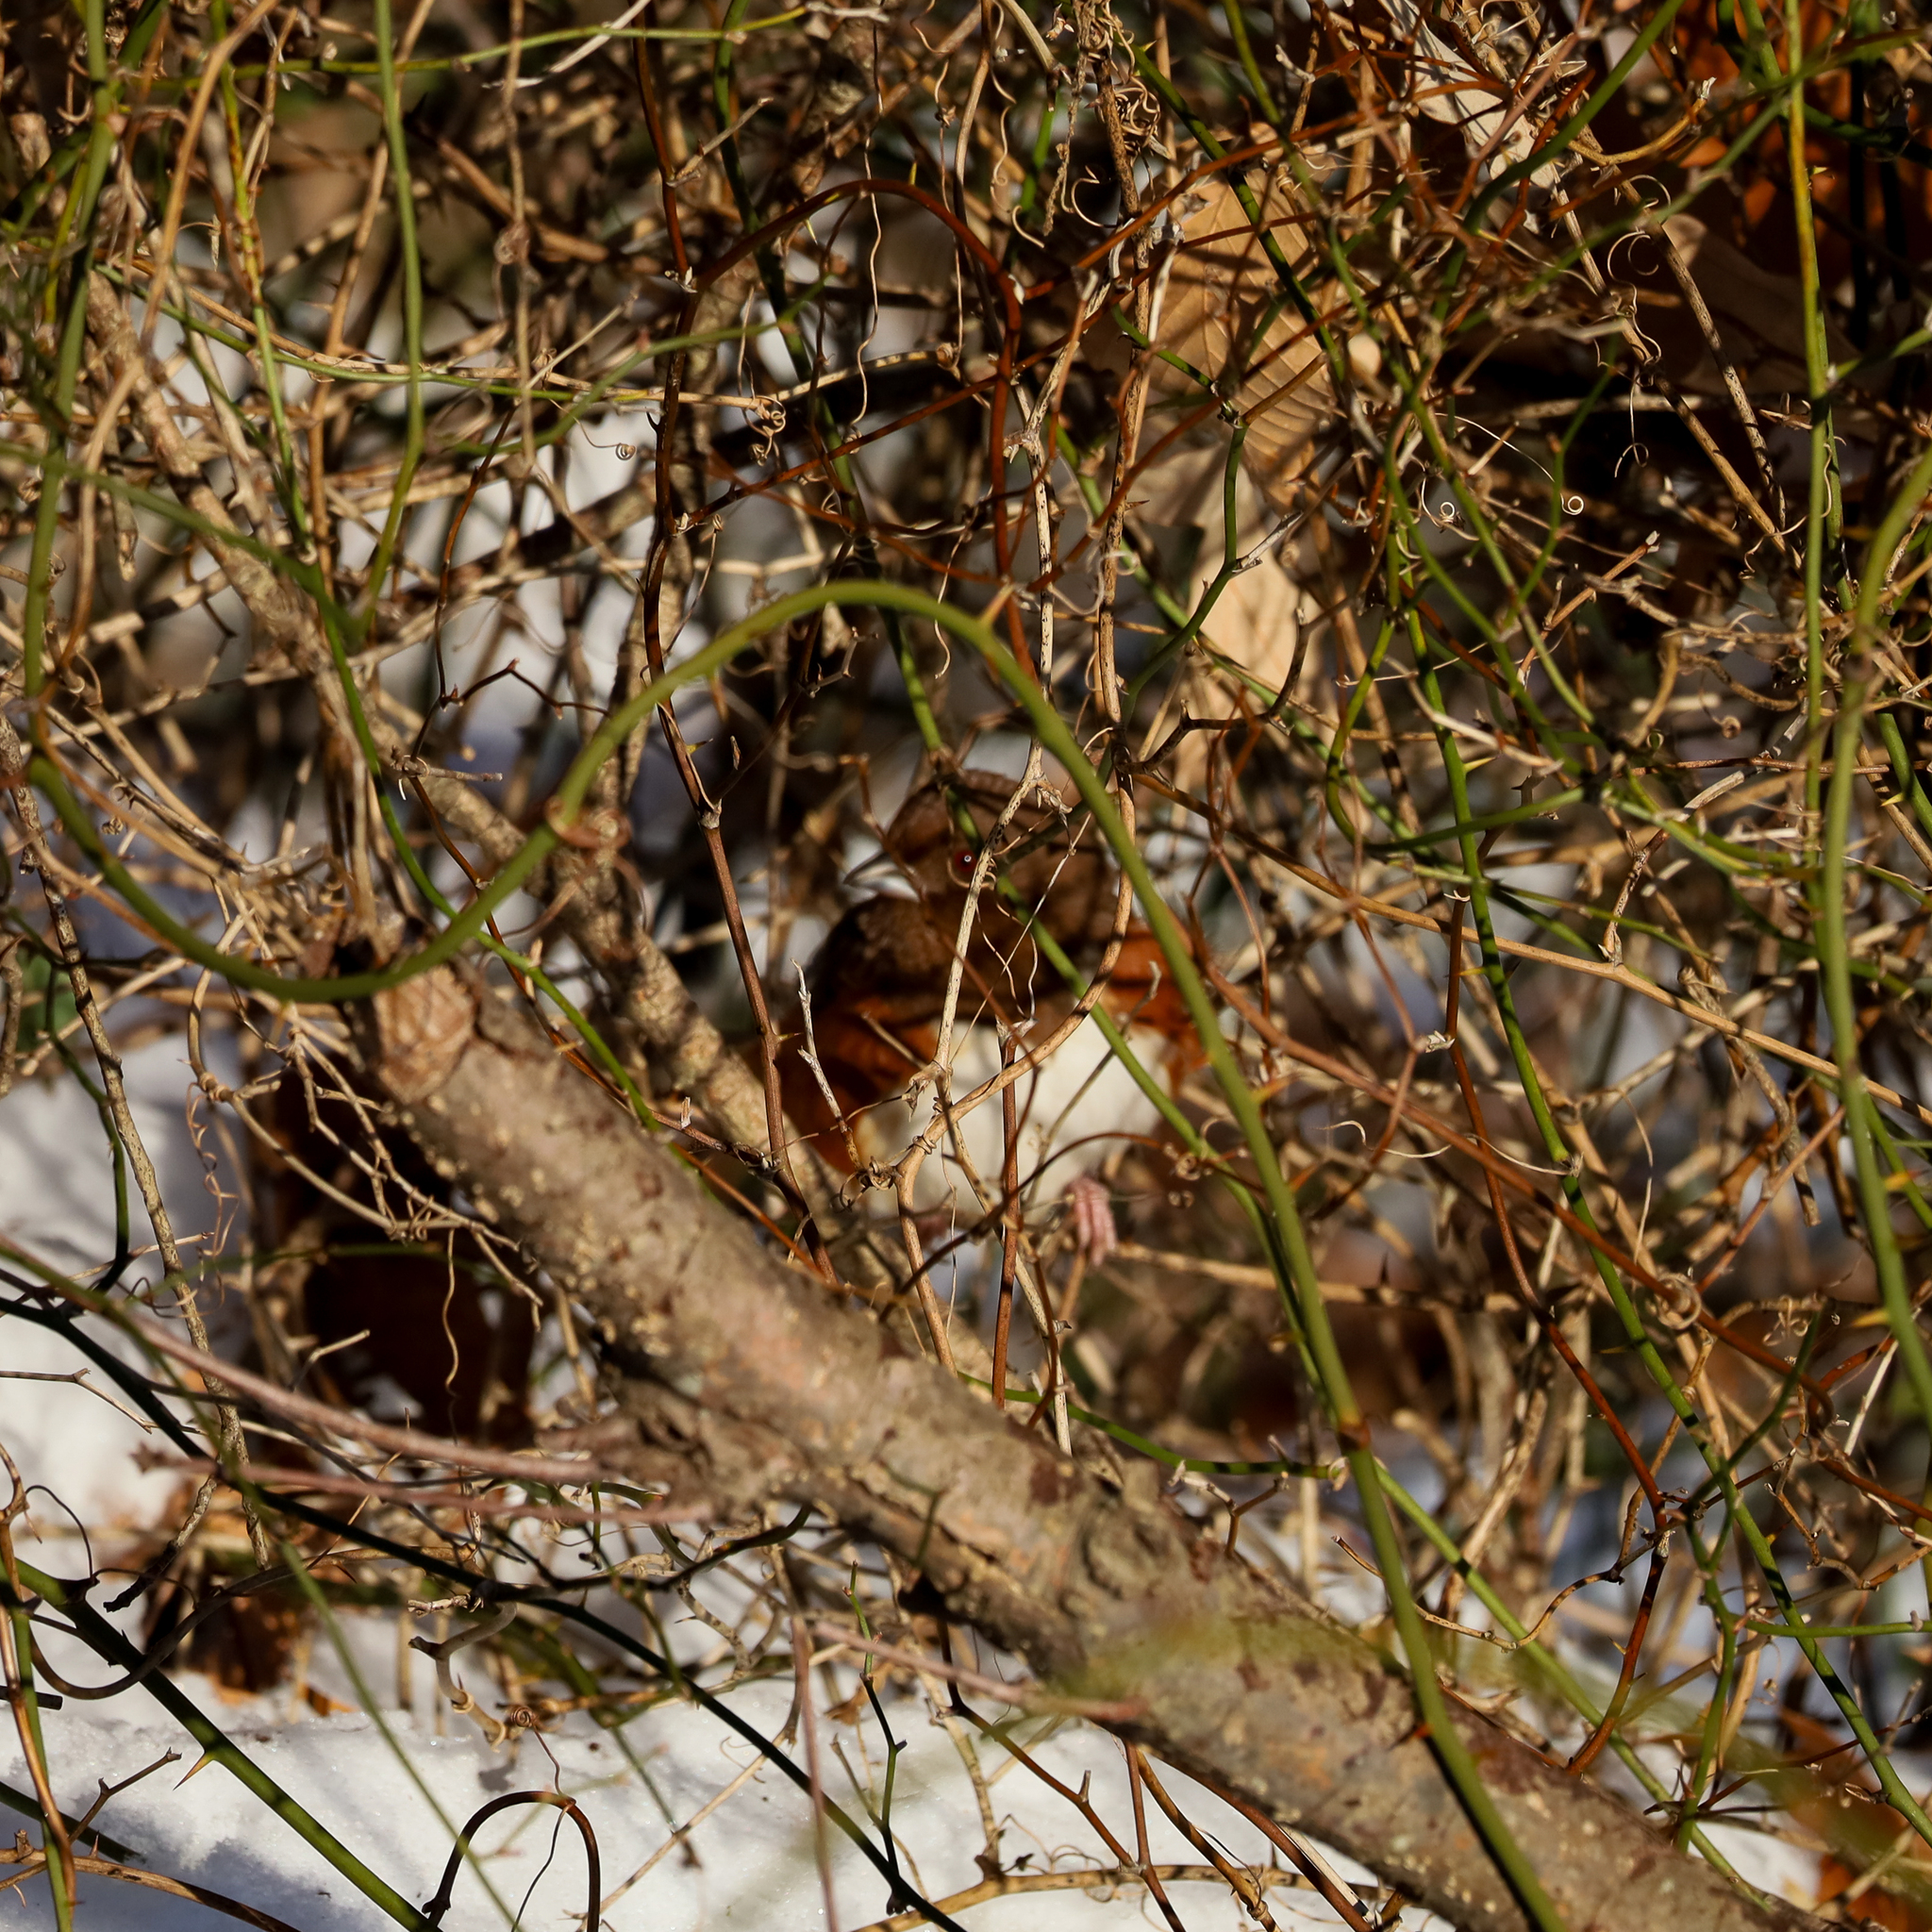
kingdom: Animalia
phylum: Chordata
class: Aves
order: Passeriformes
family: Passerellidae
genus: Pipilo
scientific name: Pipilo erythrophthalmus
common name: Eastern towhee
